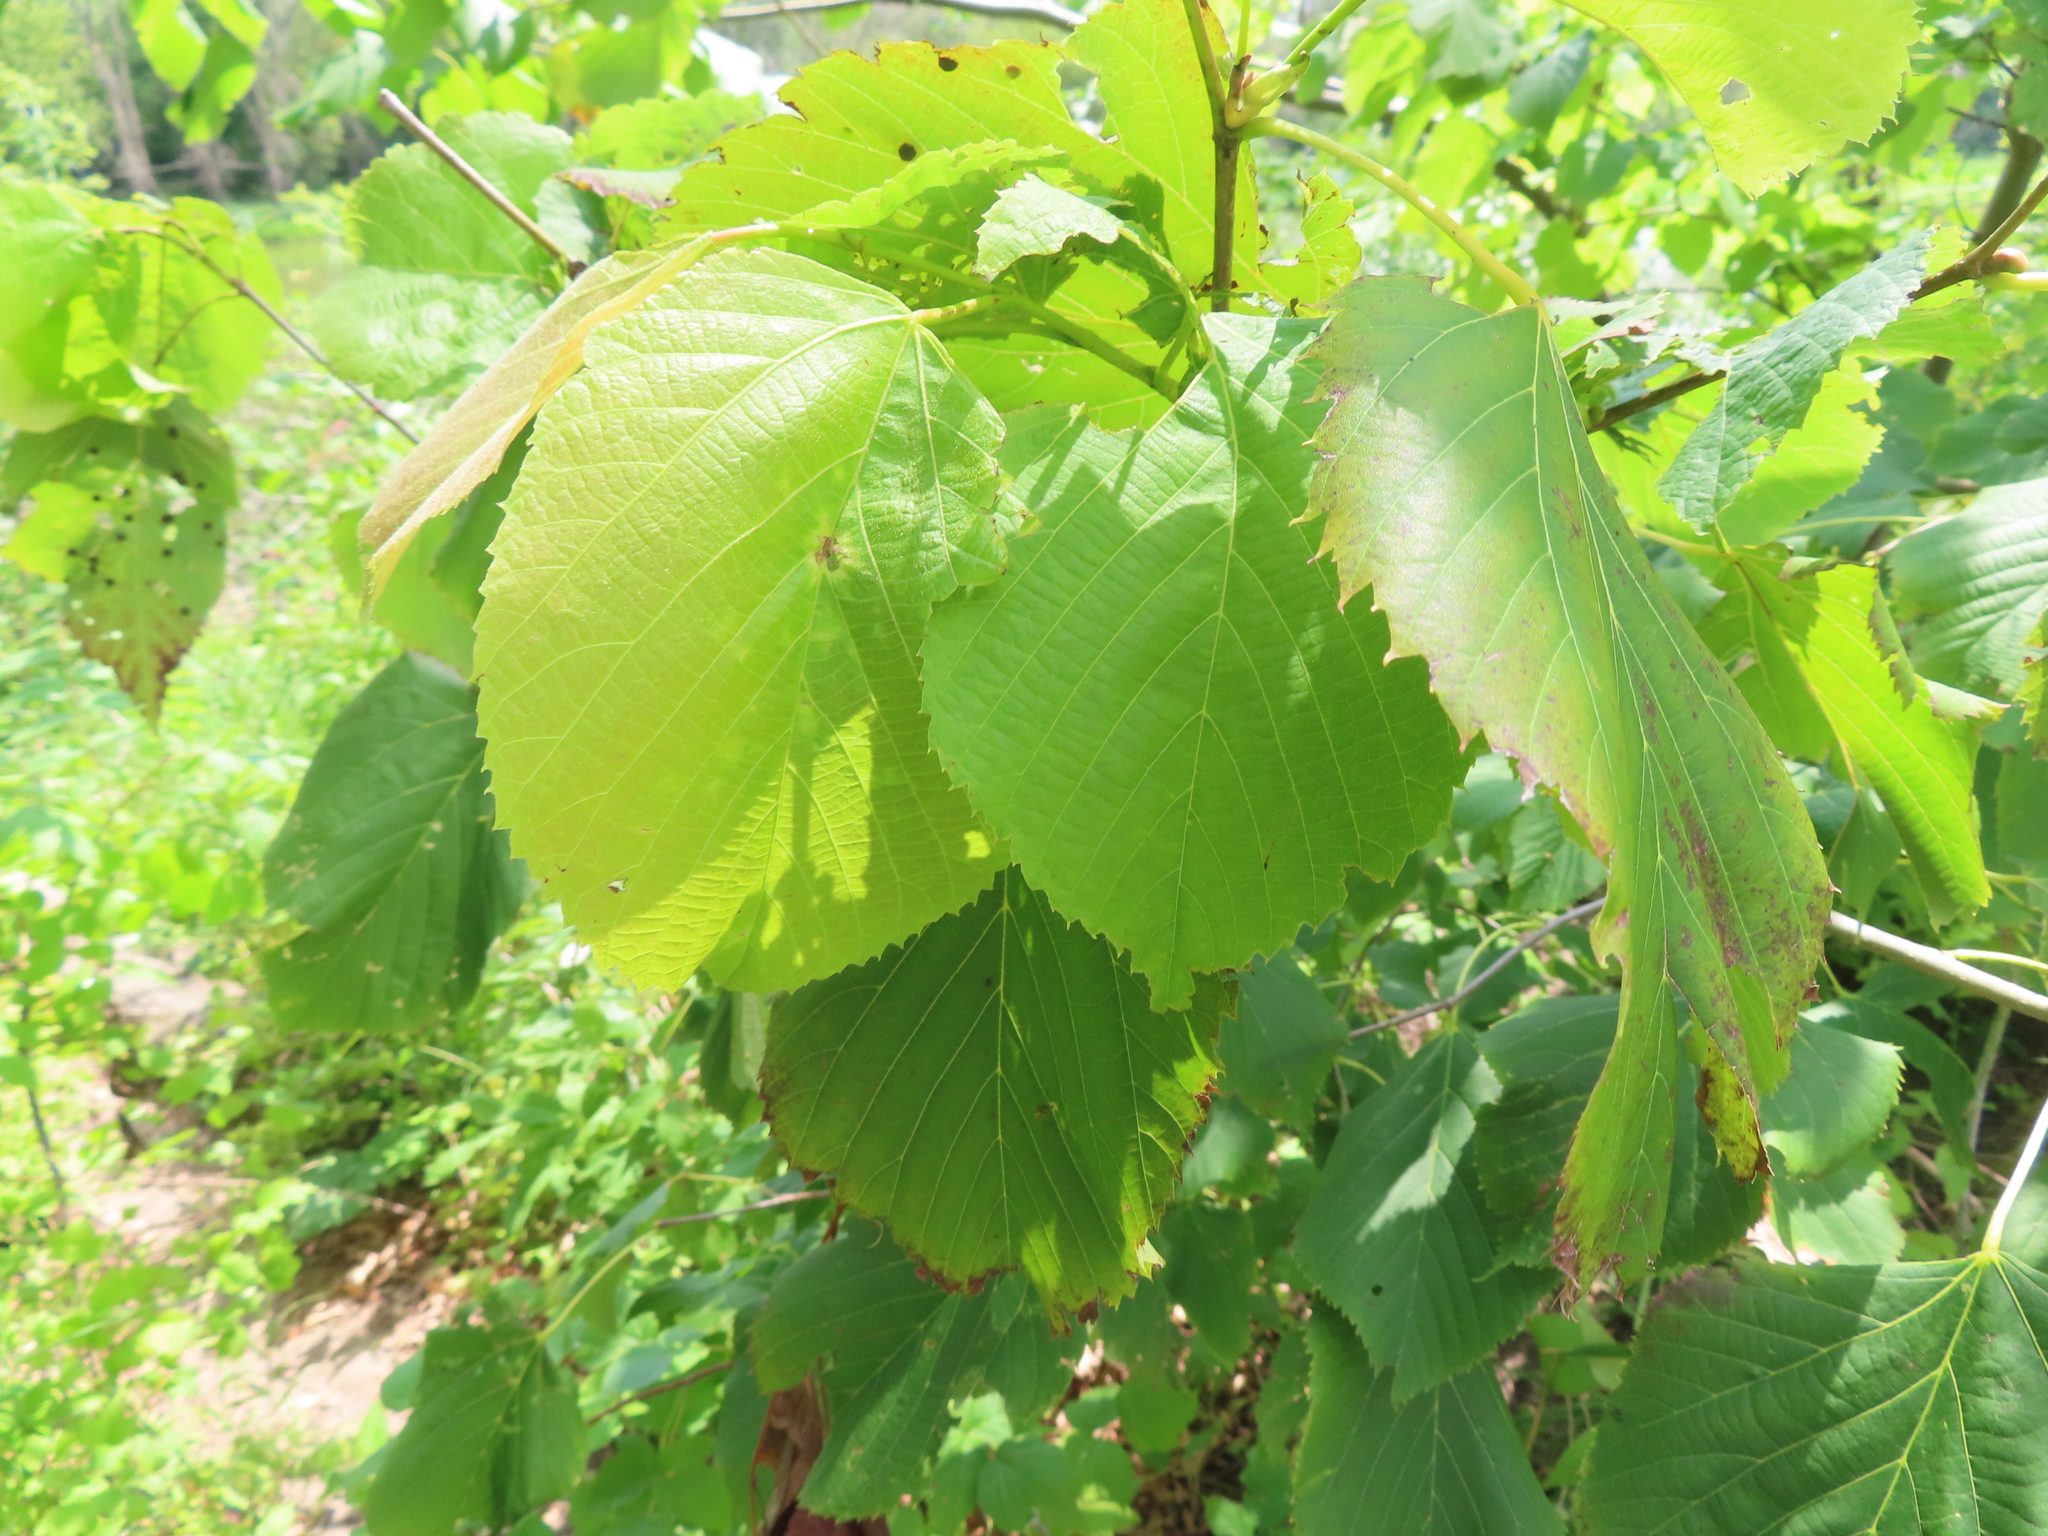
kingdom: Plantae
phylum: Tracheophyta
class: Magnoliopsida
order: Malvales
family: Malvaceae
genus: Tilia
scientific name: Tilia americana
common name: Basswood
